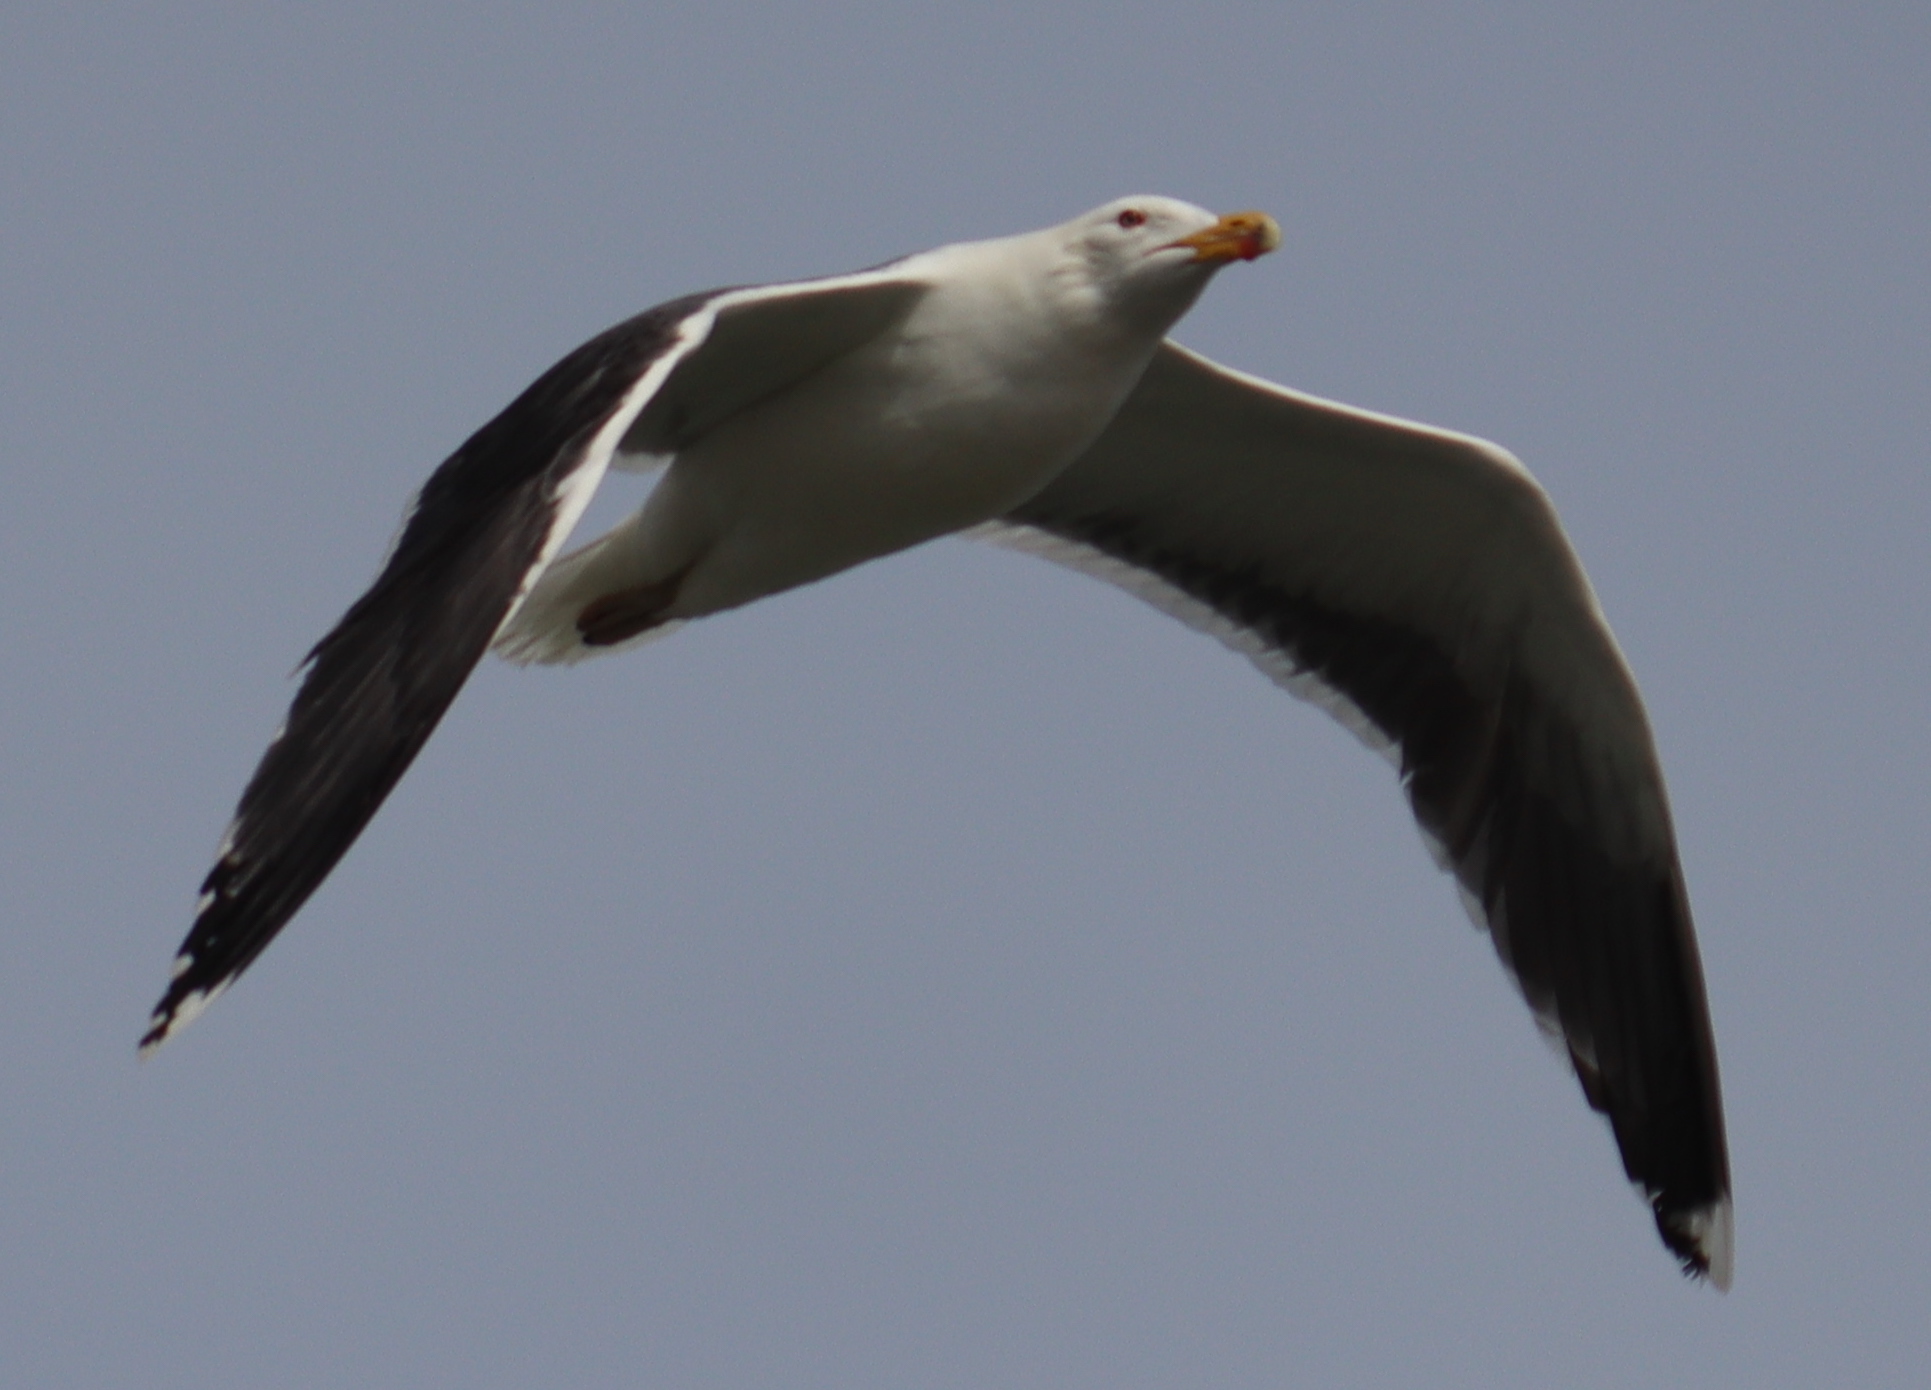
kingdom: Animalia
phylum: Chordata
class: Aves
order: Charadriiformes
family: Laridae
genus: Larus
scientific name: Larus marinus
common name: Great black-backed gull
